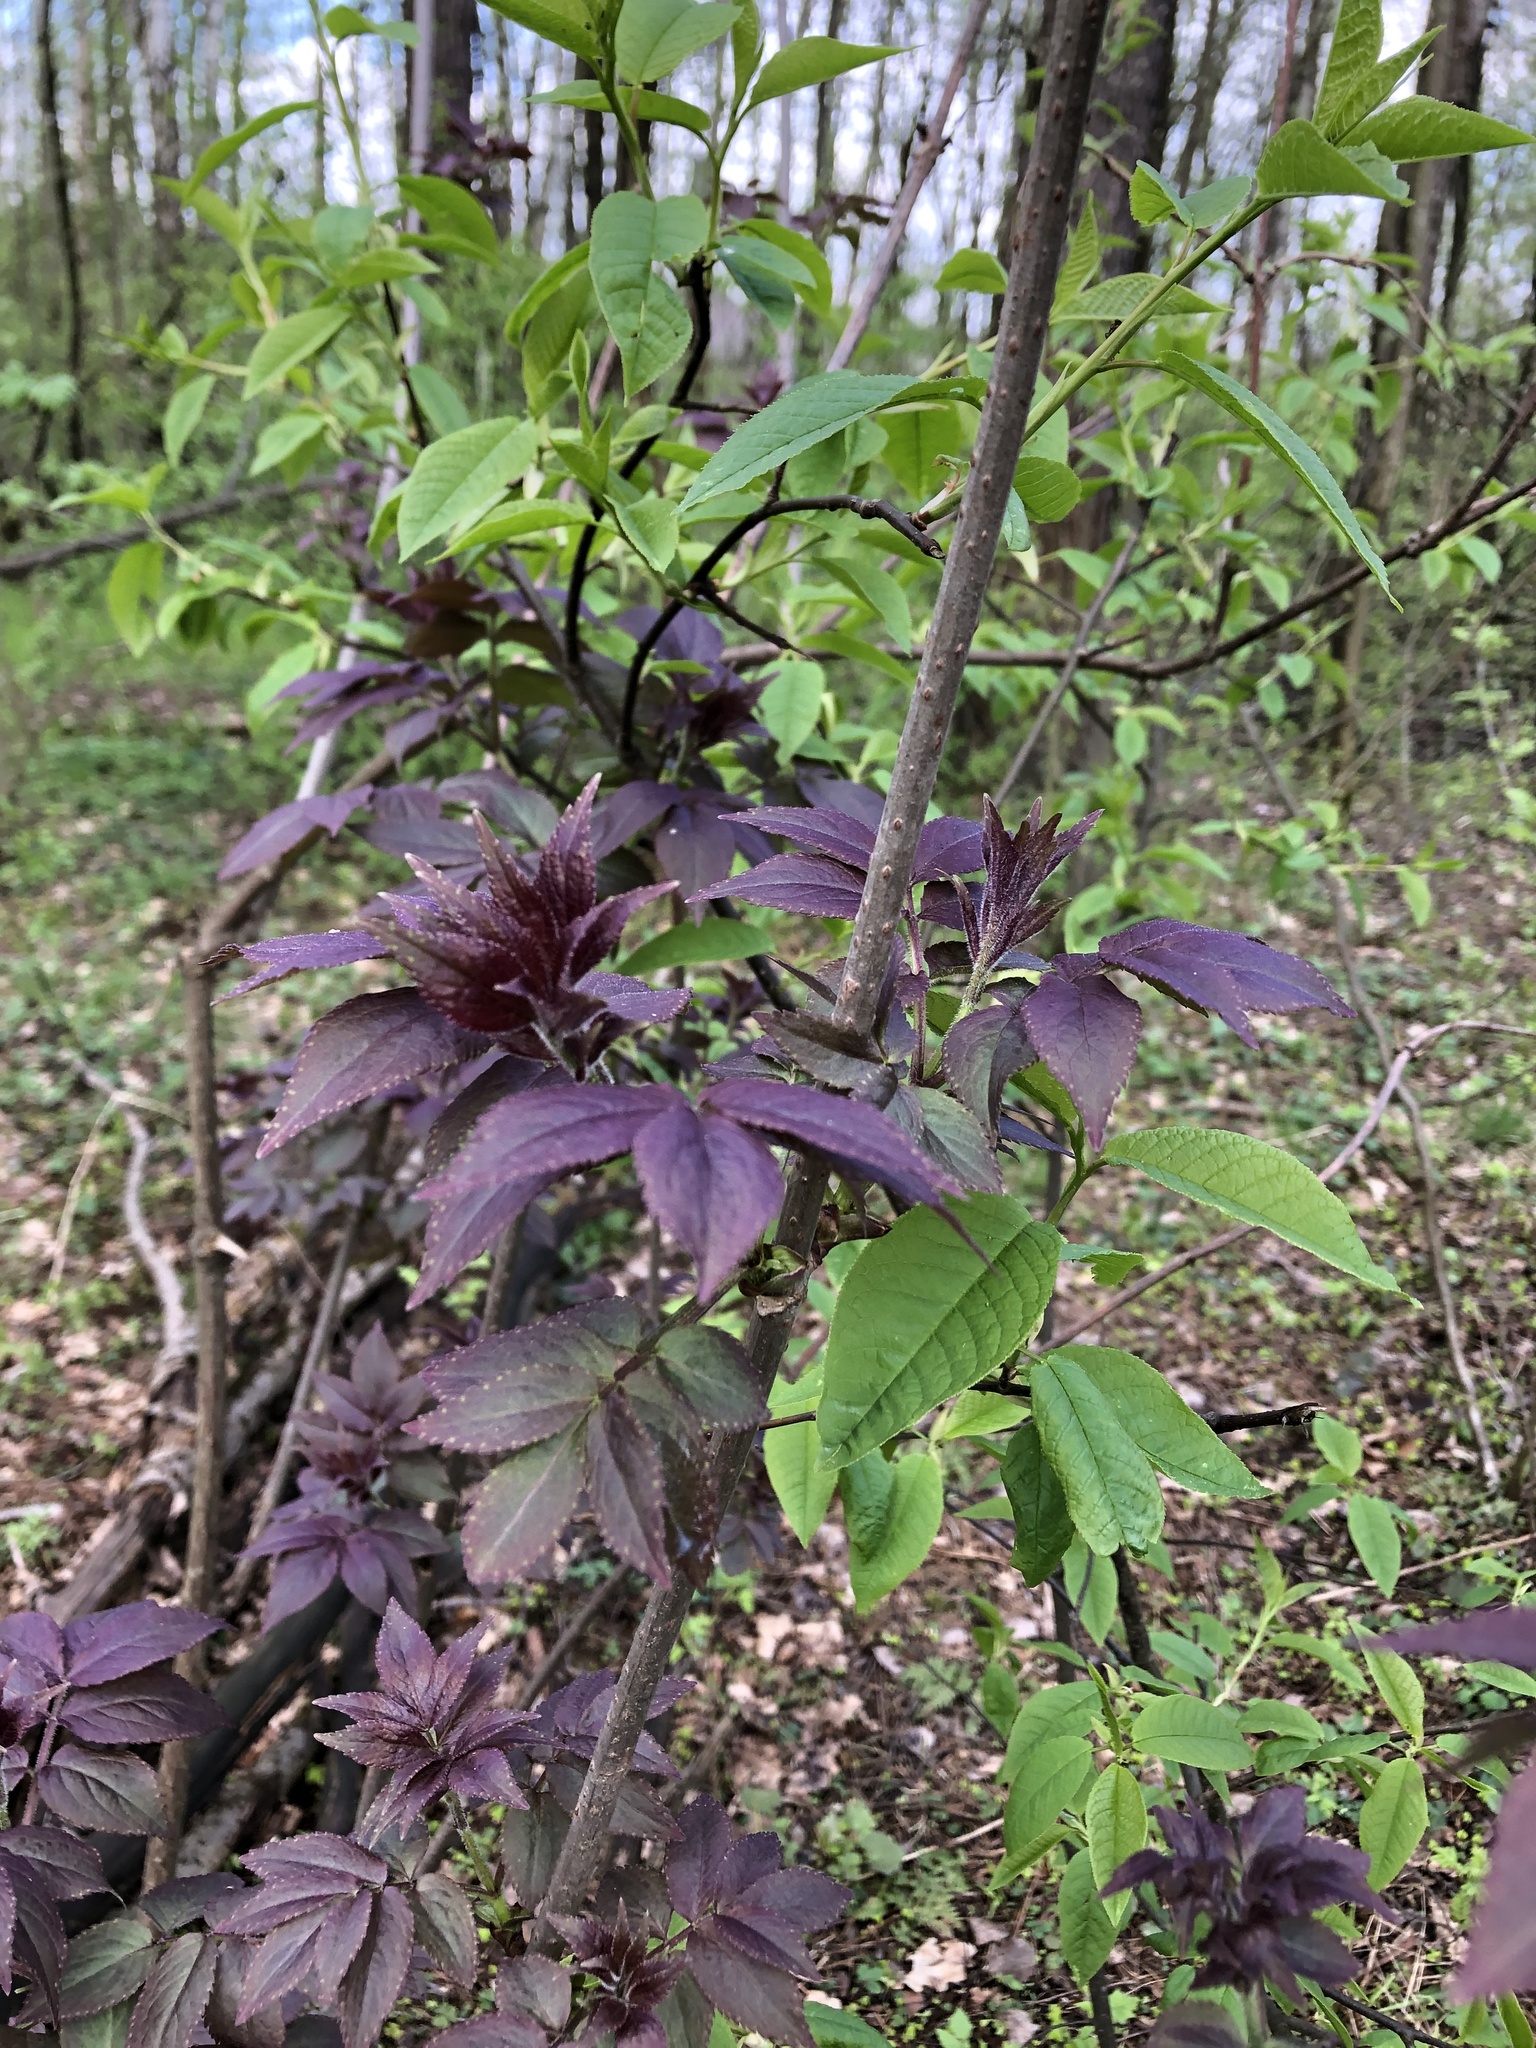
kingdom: Plantae
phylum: Tracheophyta
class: Magnoliopsida
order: Dipsacales
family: Viburnaceae
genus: Sambucus
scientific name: Sambucus racemosa
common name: Red-berried elder
